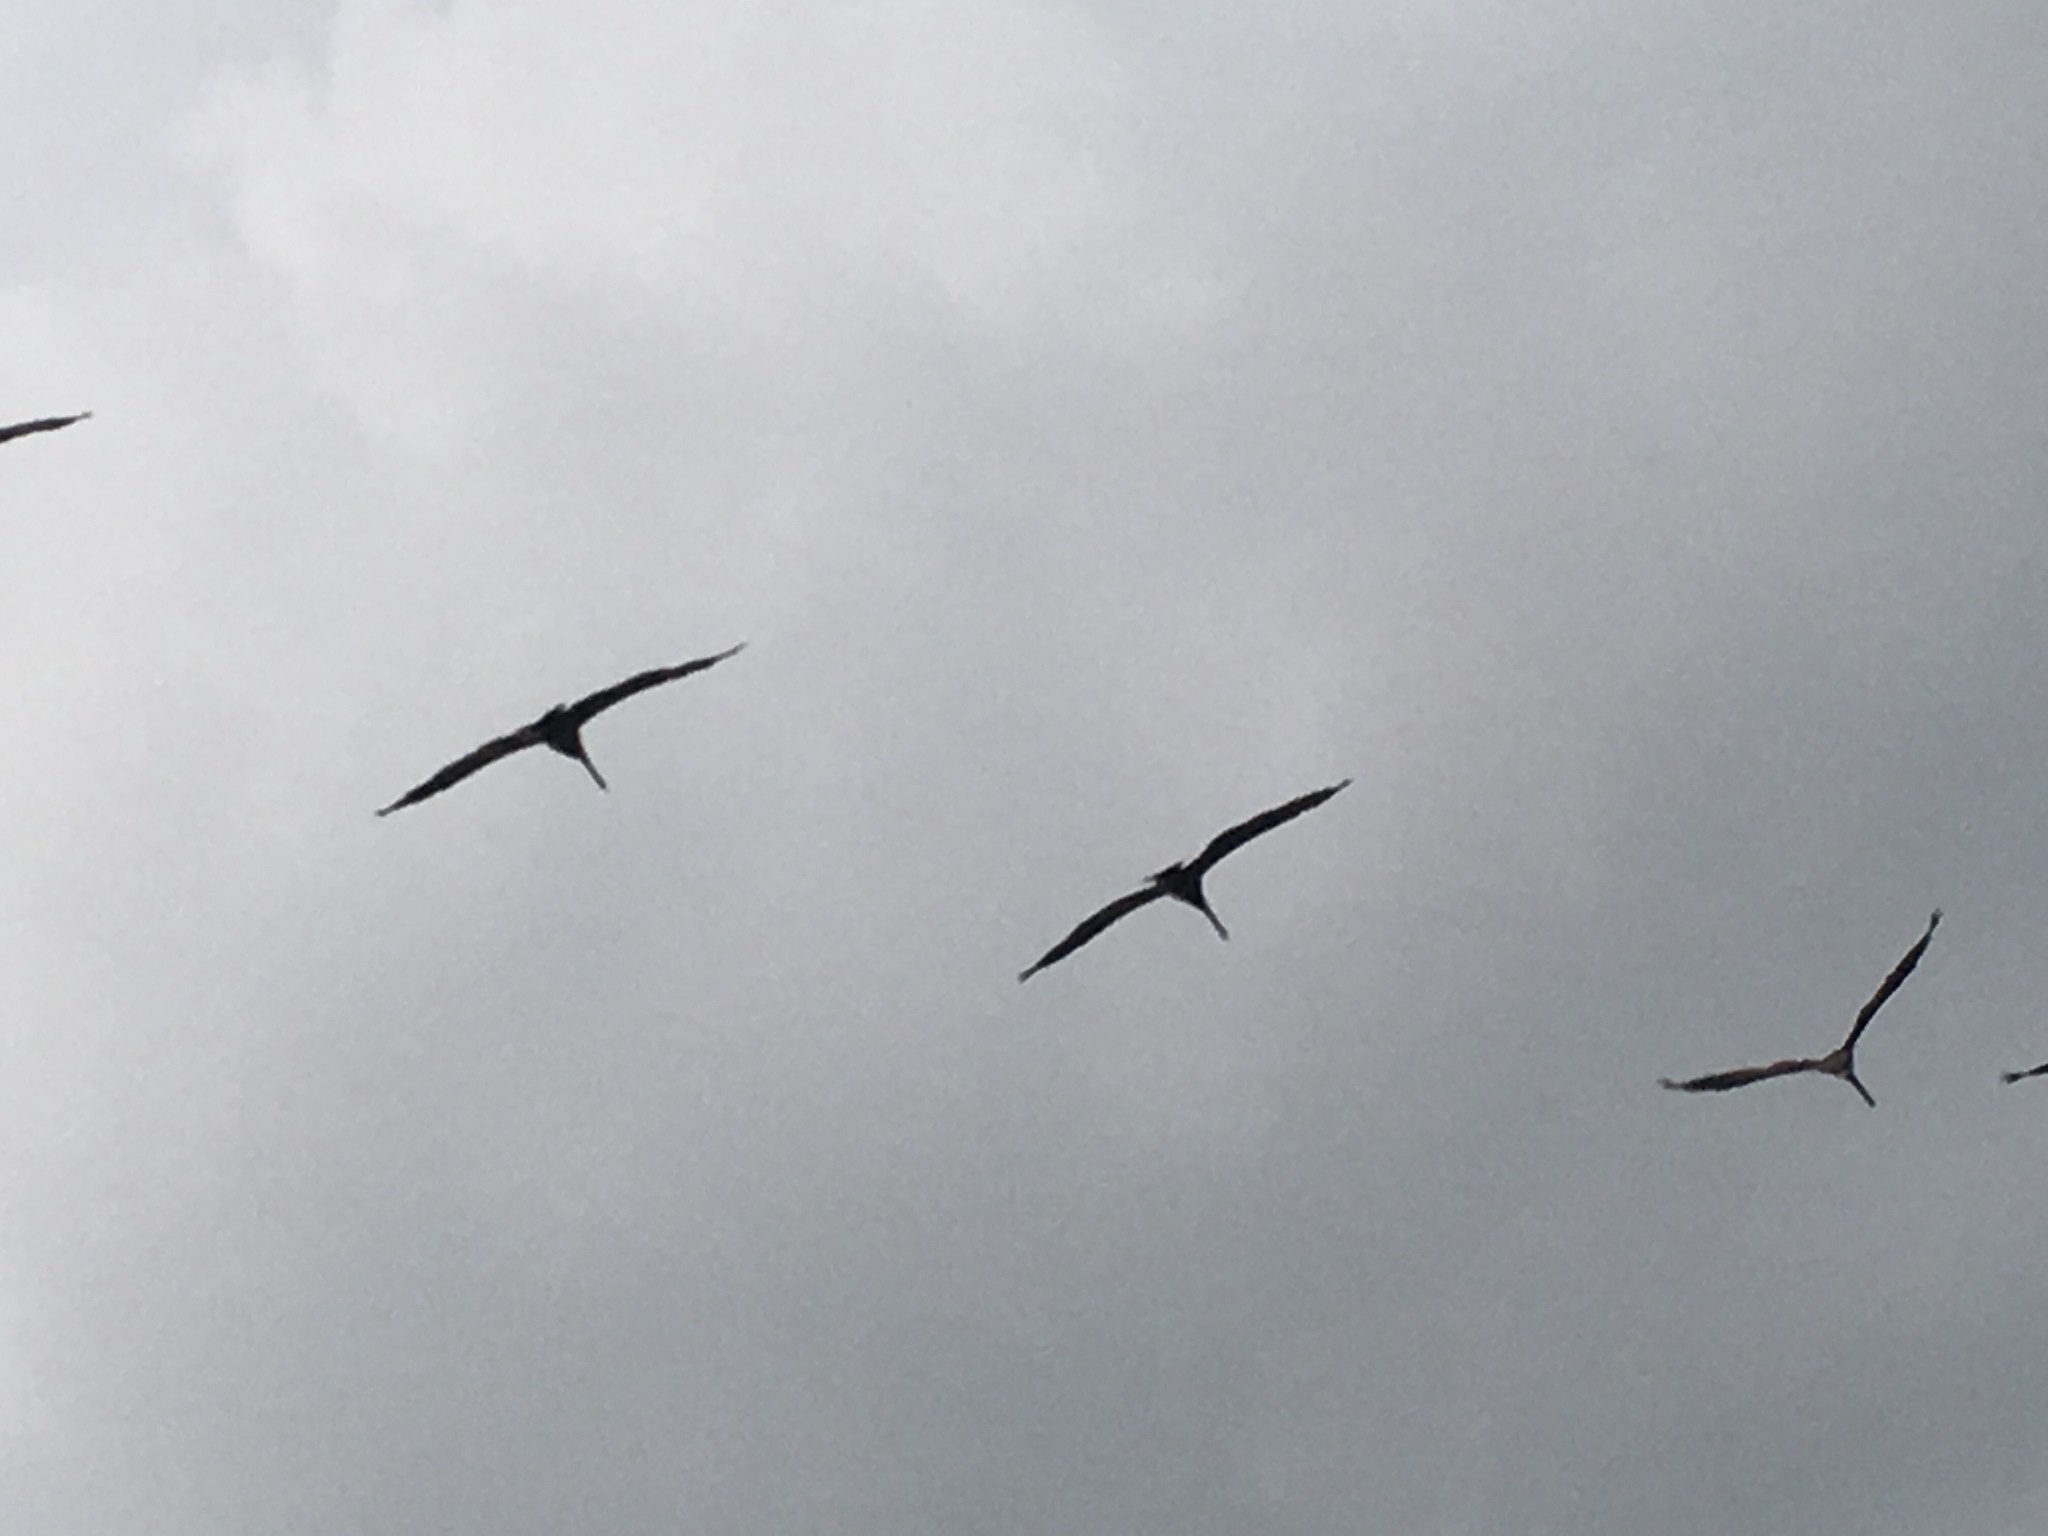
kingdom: Animalia
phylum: Chordata
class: Aves
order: Pelecaniformes
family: Pelecanidae
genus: Pelecanus
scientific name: Pelecanus occidentalis
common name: Brown pelican
